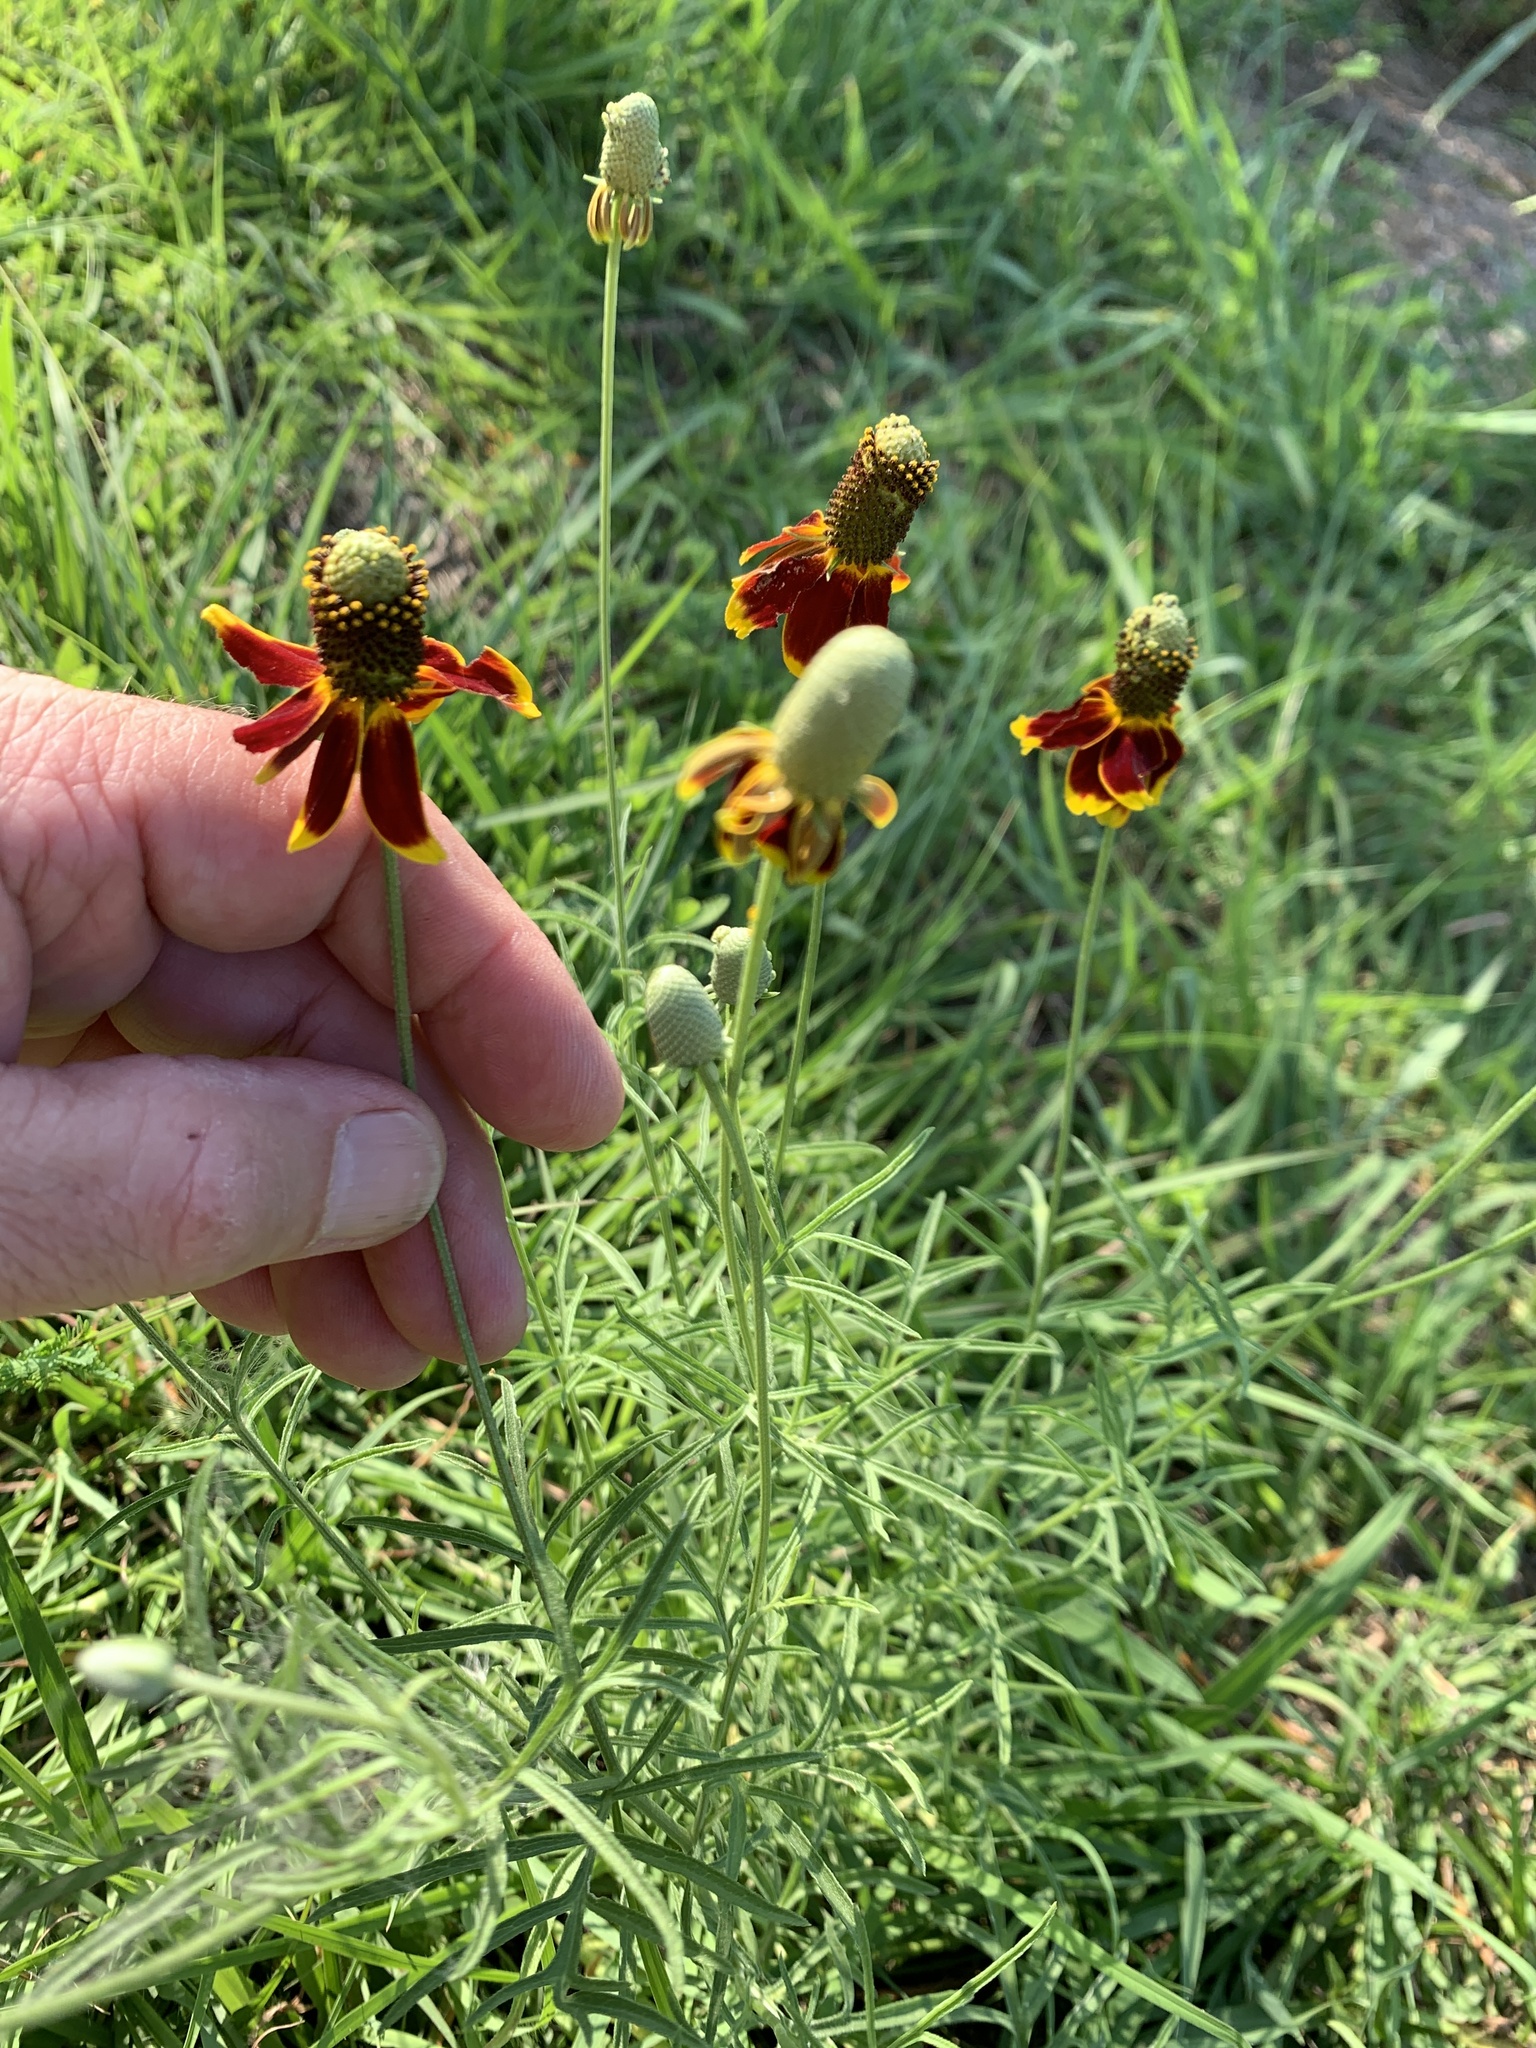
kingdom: Plantae
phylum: Tracheophyta
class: Magnoliopsida
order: Asterales
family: Asteraceae
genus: Ratibida
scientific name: Ratibida columnifera
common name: Prairie coneflower
